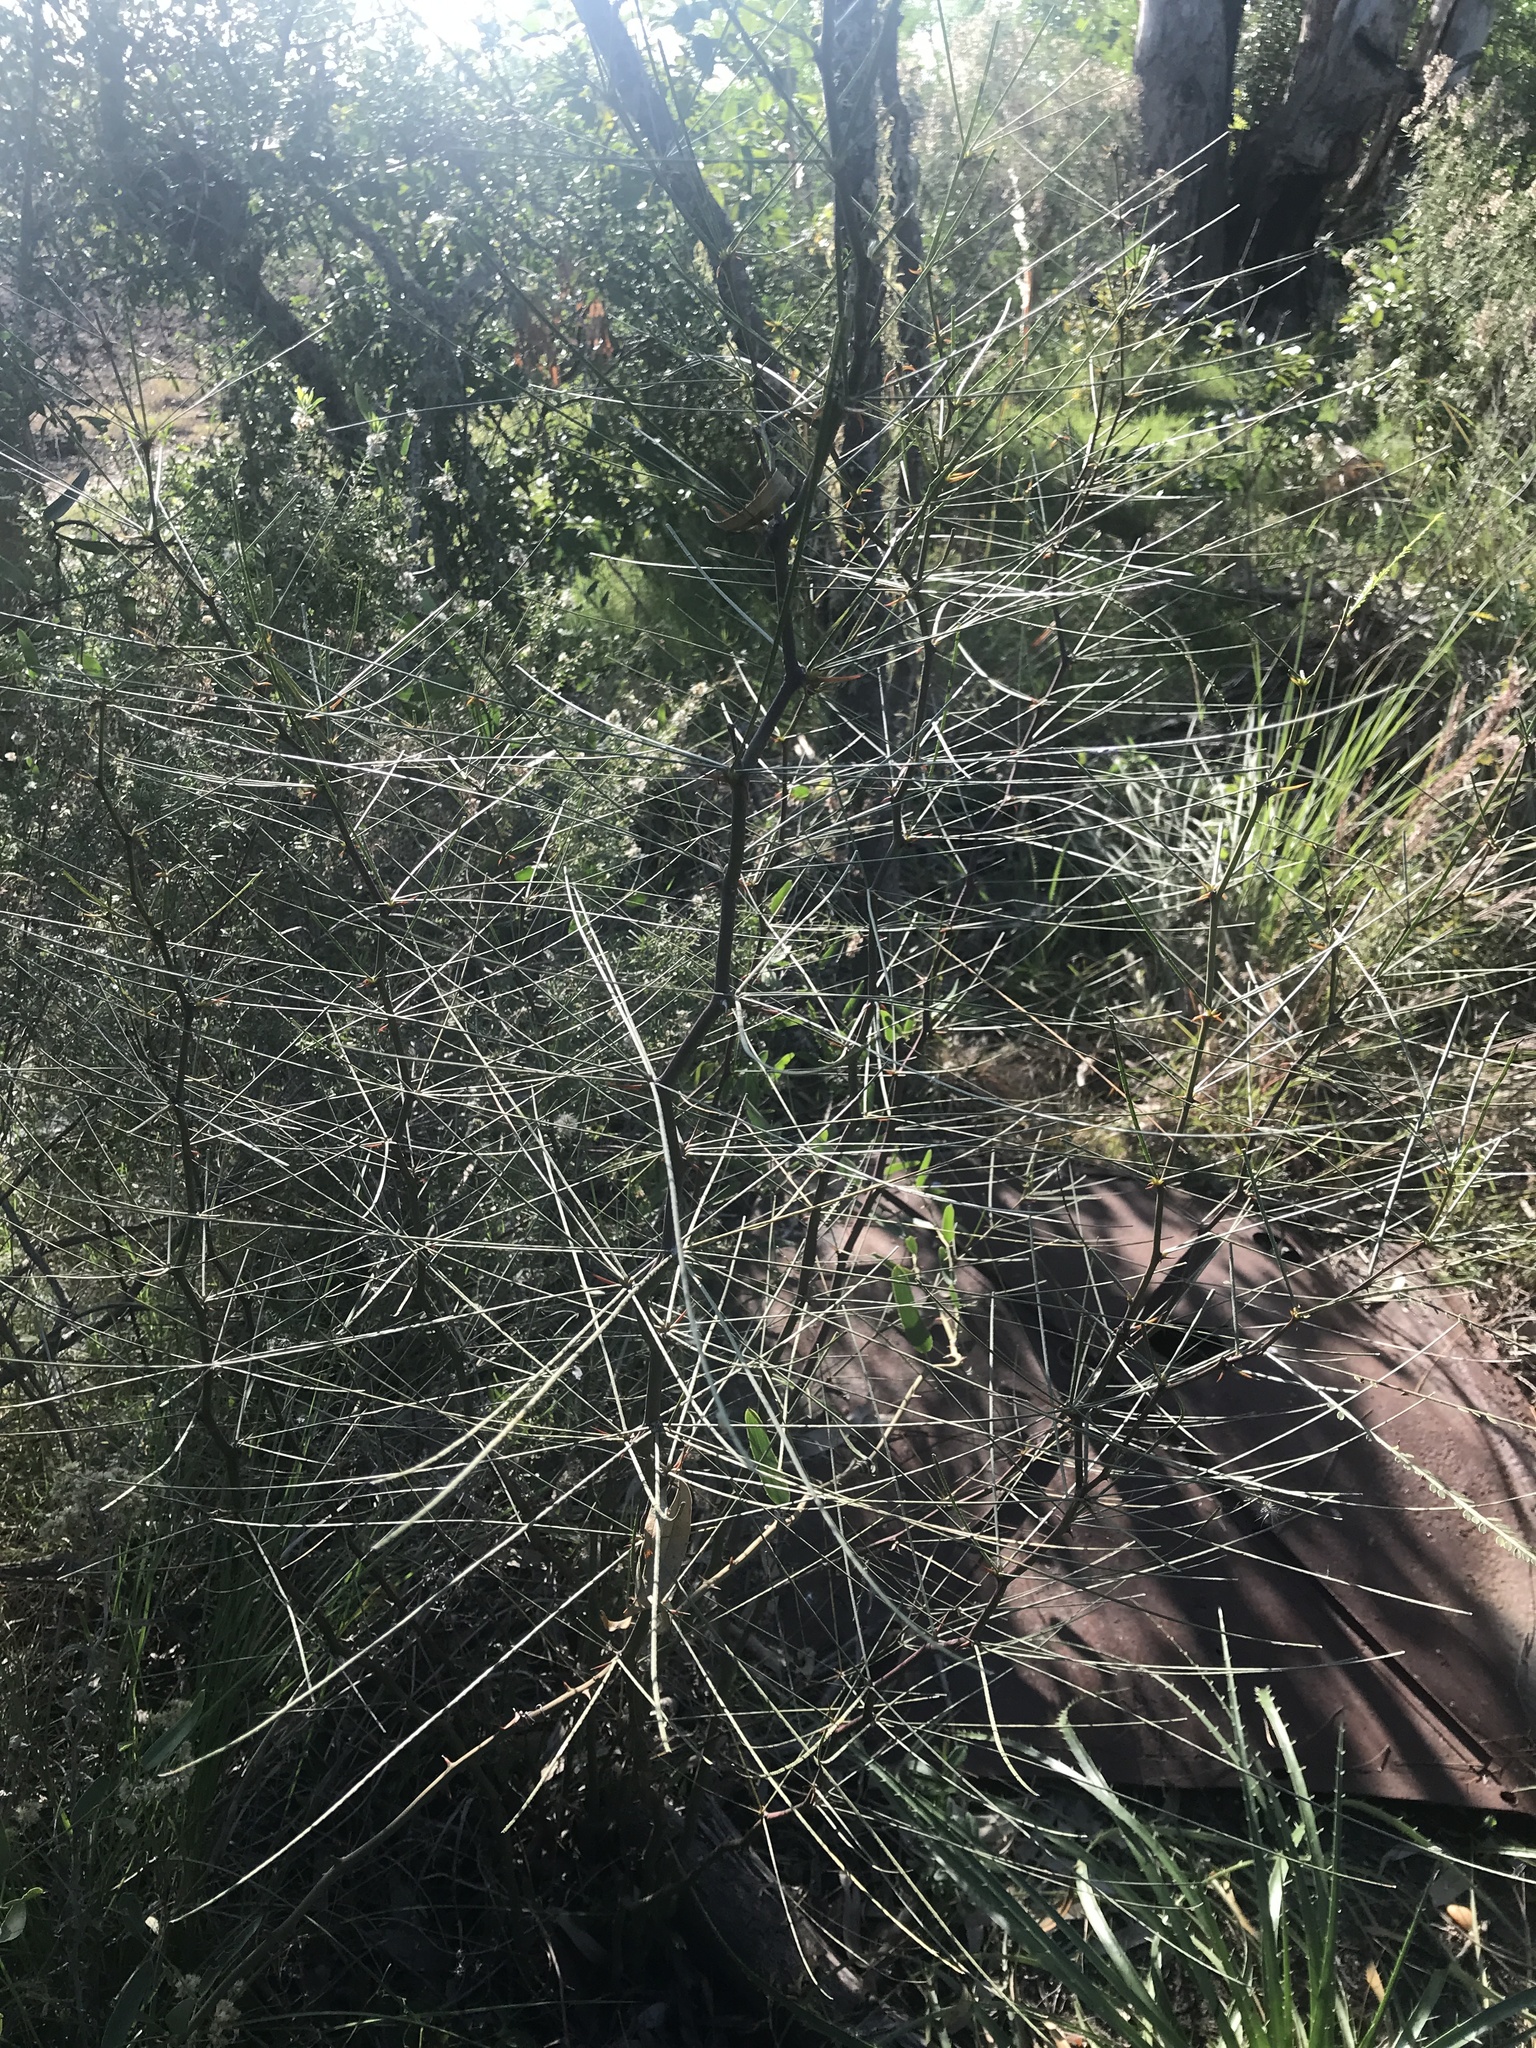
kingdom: Plantae
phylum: Tracheophyta
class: Magnoliopsida
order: Fabales
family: Fabaceae
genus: Parkinsonia
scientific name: Parkinsonia aculeata
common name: Jerusalem thorn
